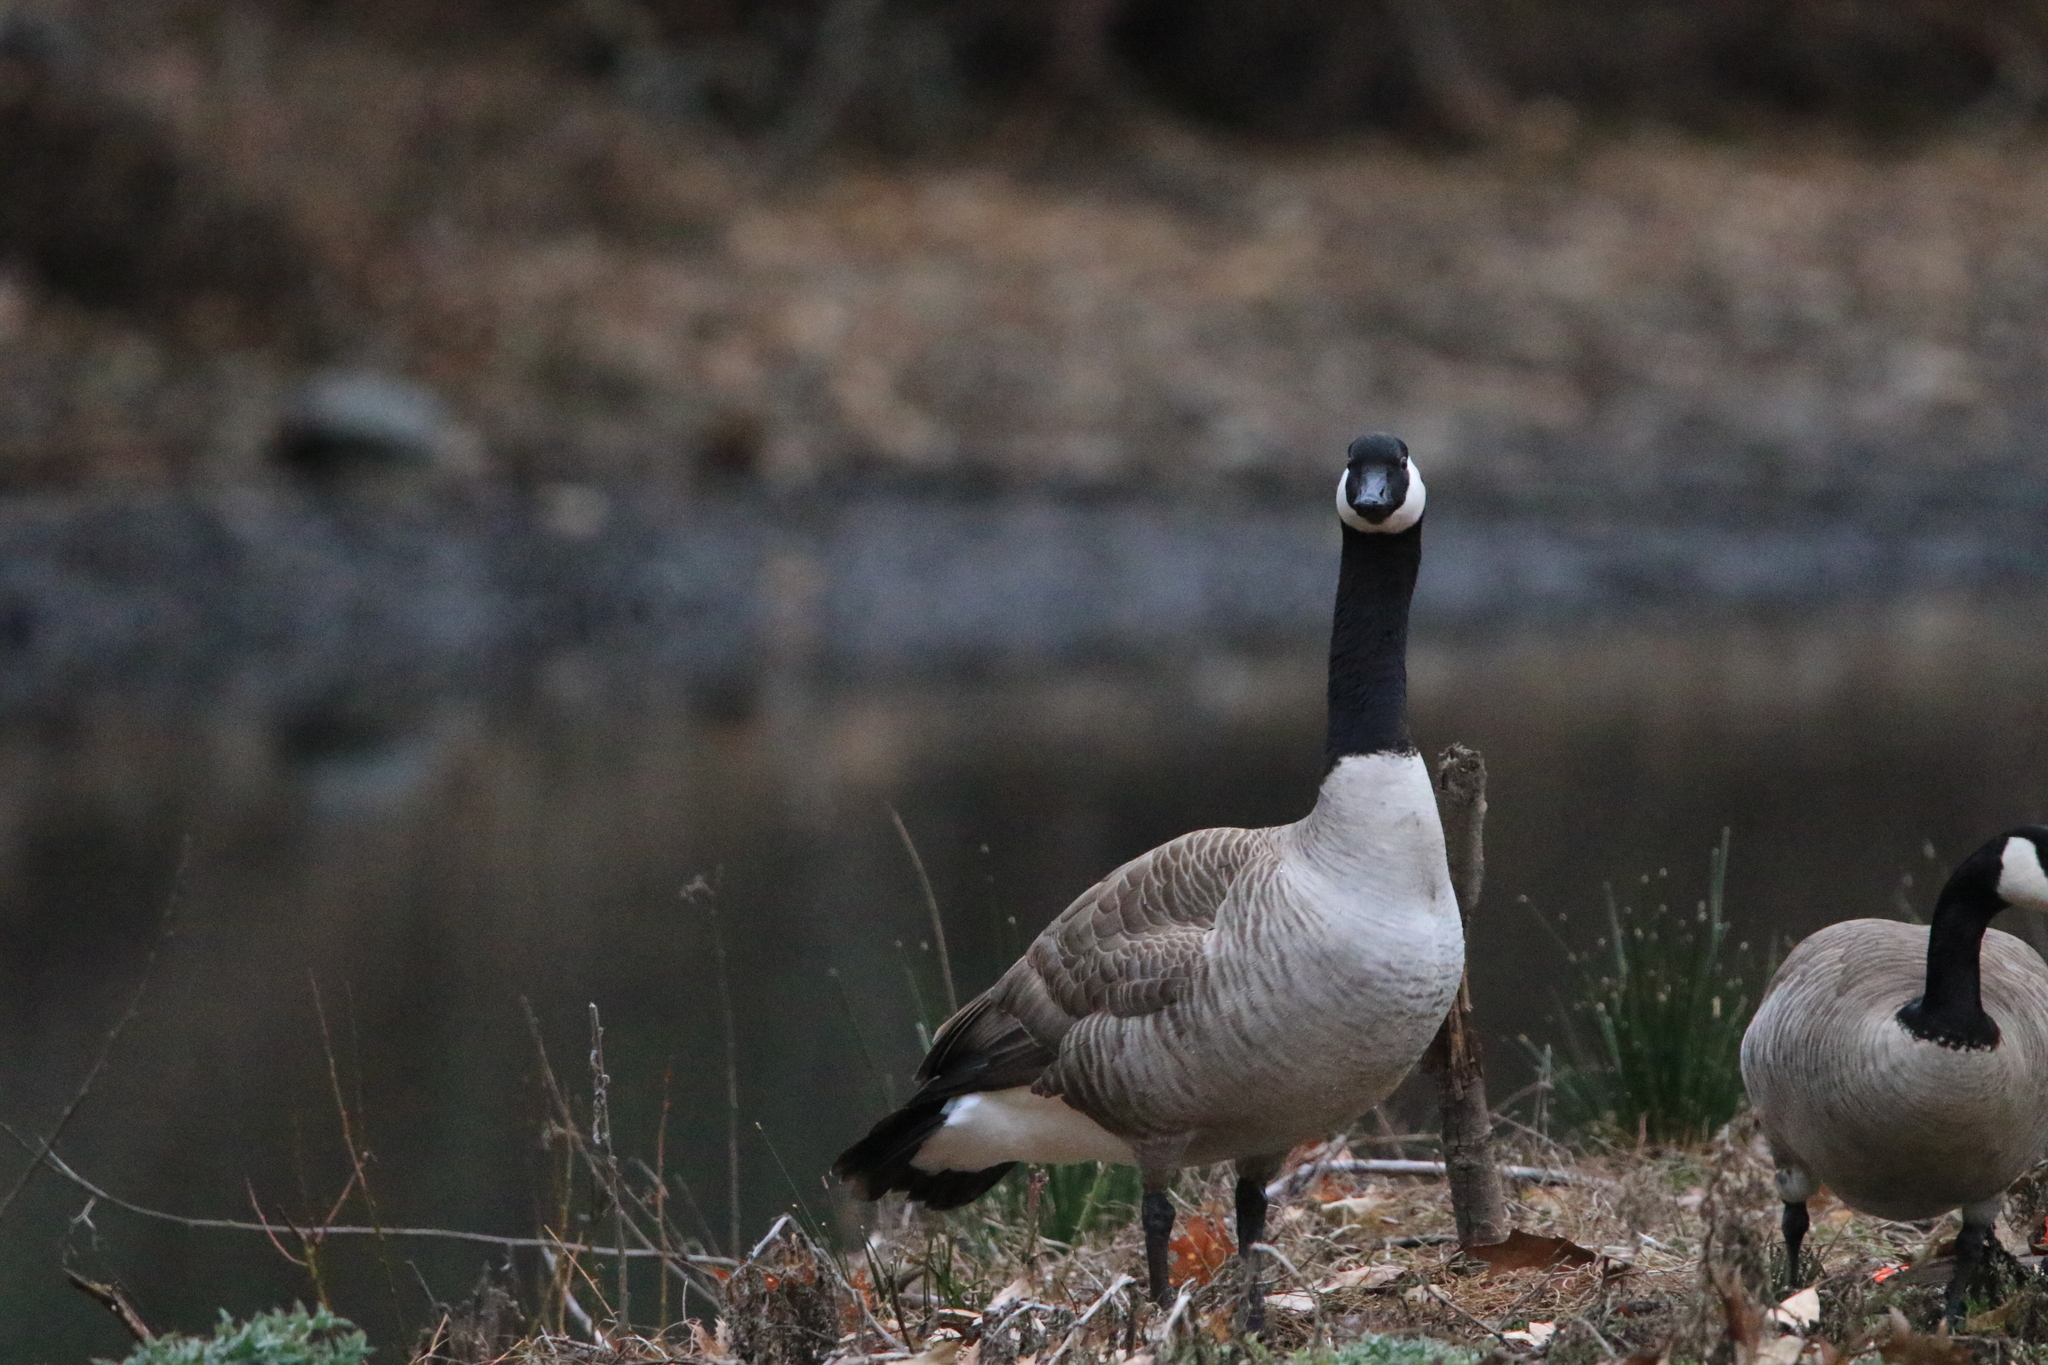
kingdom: Animalia
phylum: Chordata
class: Aves
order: Anseriformes
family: Anatidae
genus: Branta
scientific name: Branta canadensis
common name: Canada goose
